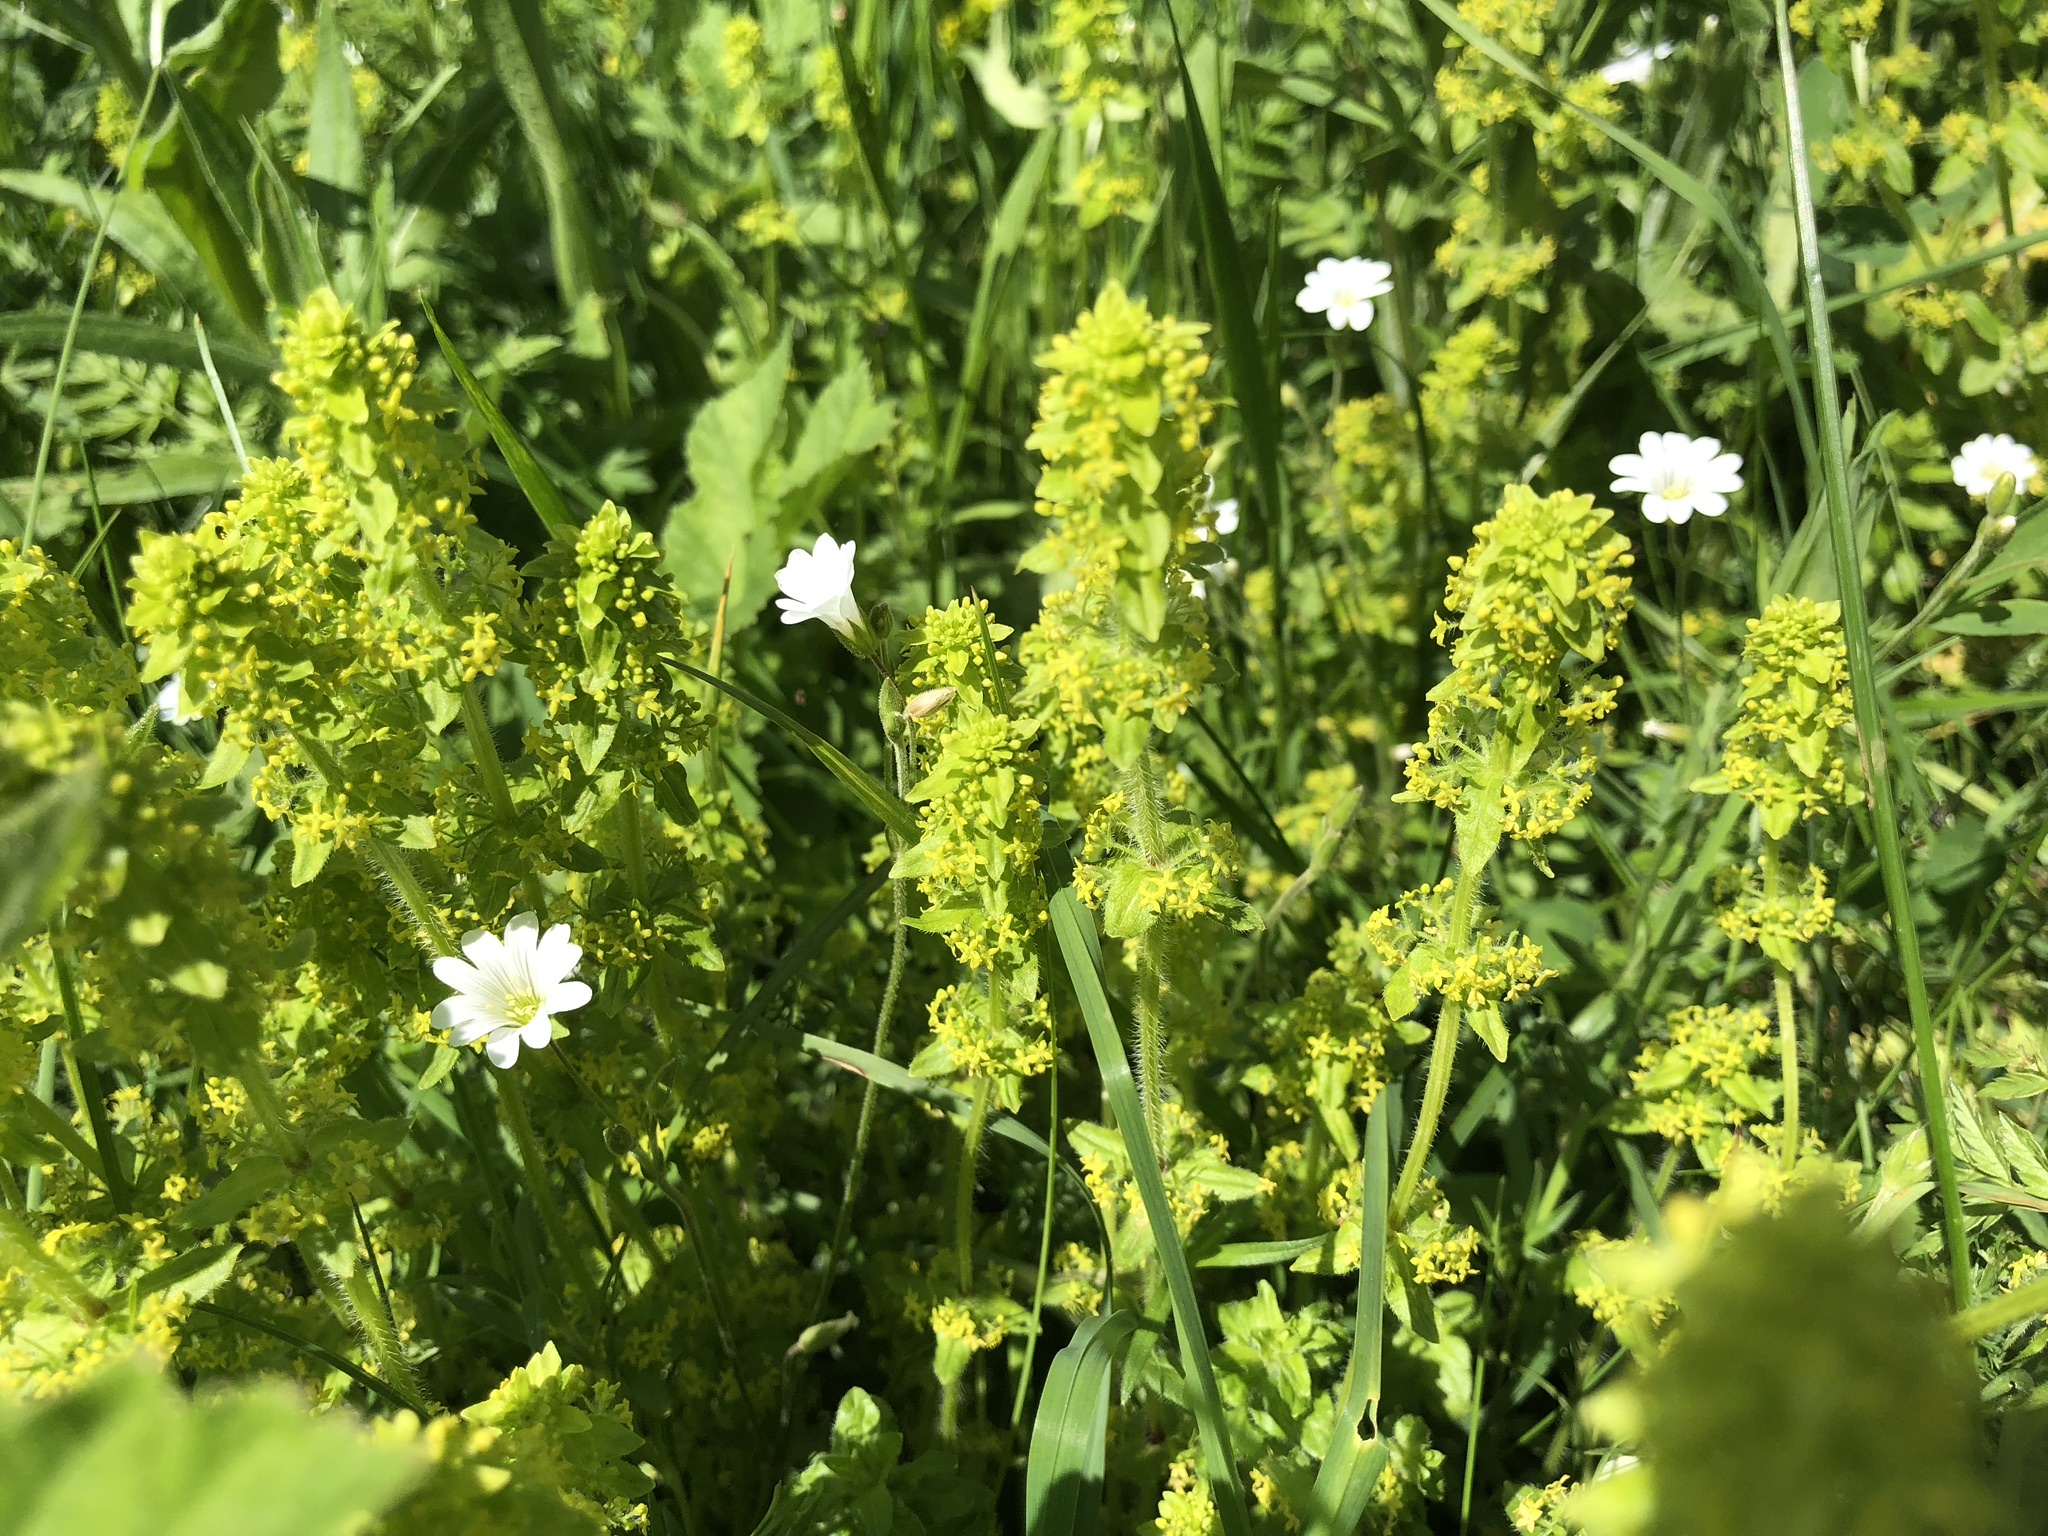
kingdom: Plantae
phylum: Tracheophyta
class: Magnoliopsida
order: Gentianales
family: Rubiaceae
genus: Cruciata
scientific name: Cruciata laevipes
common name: Crosswort
